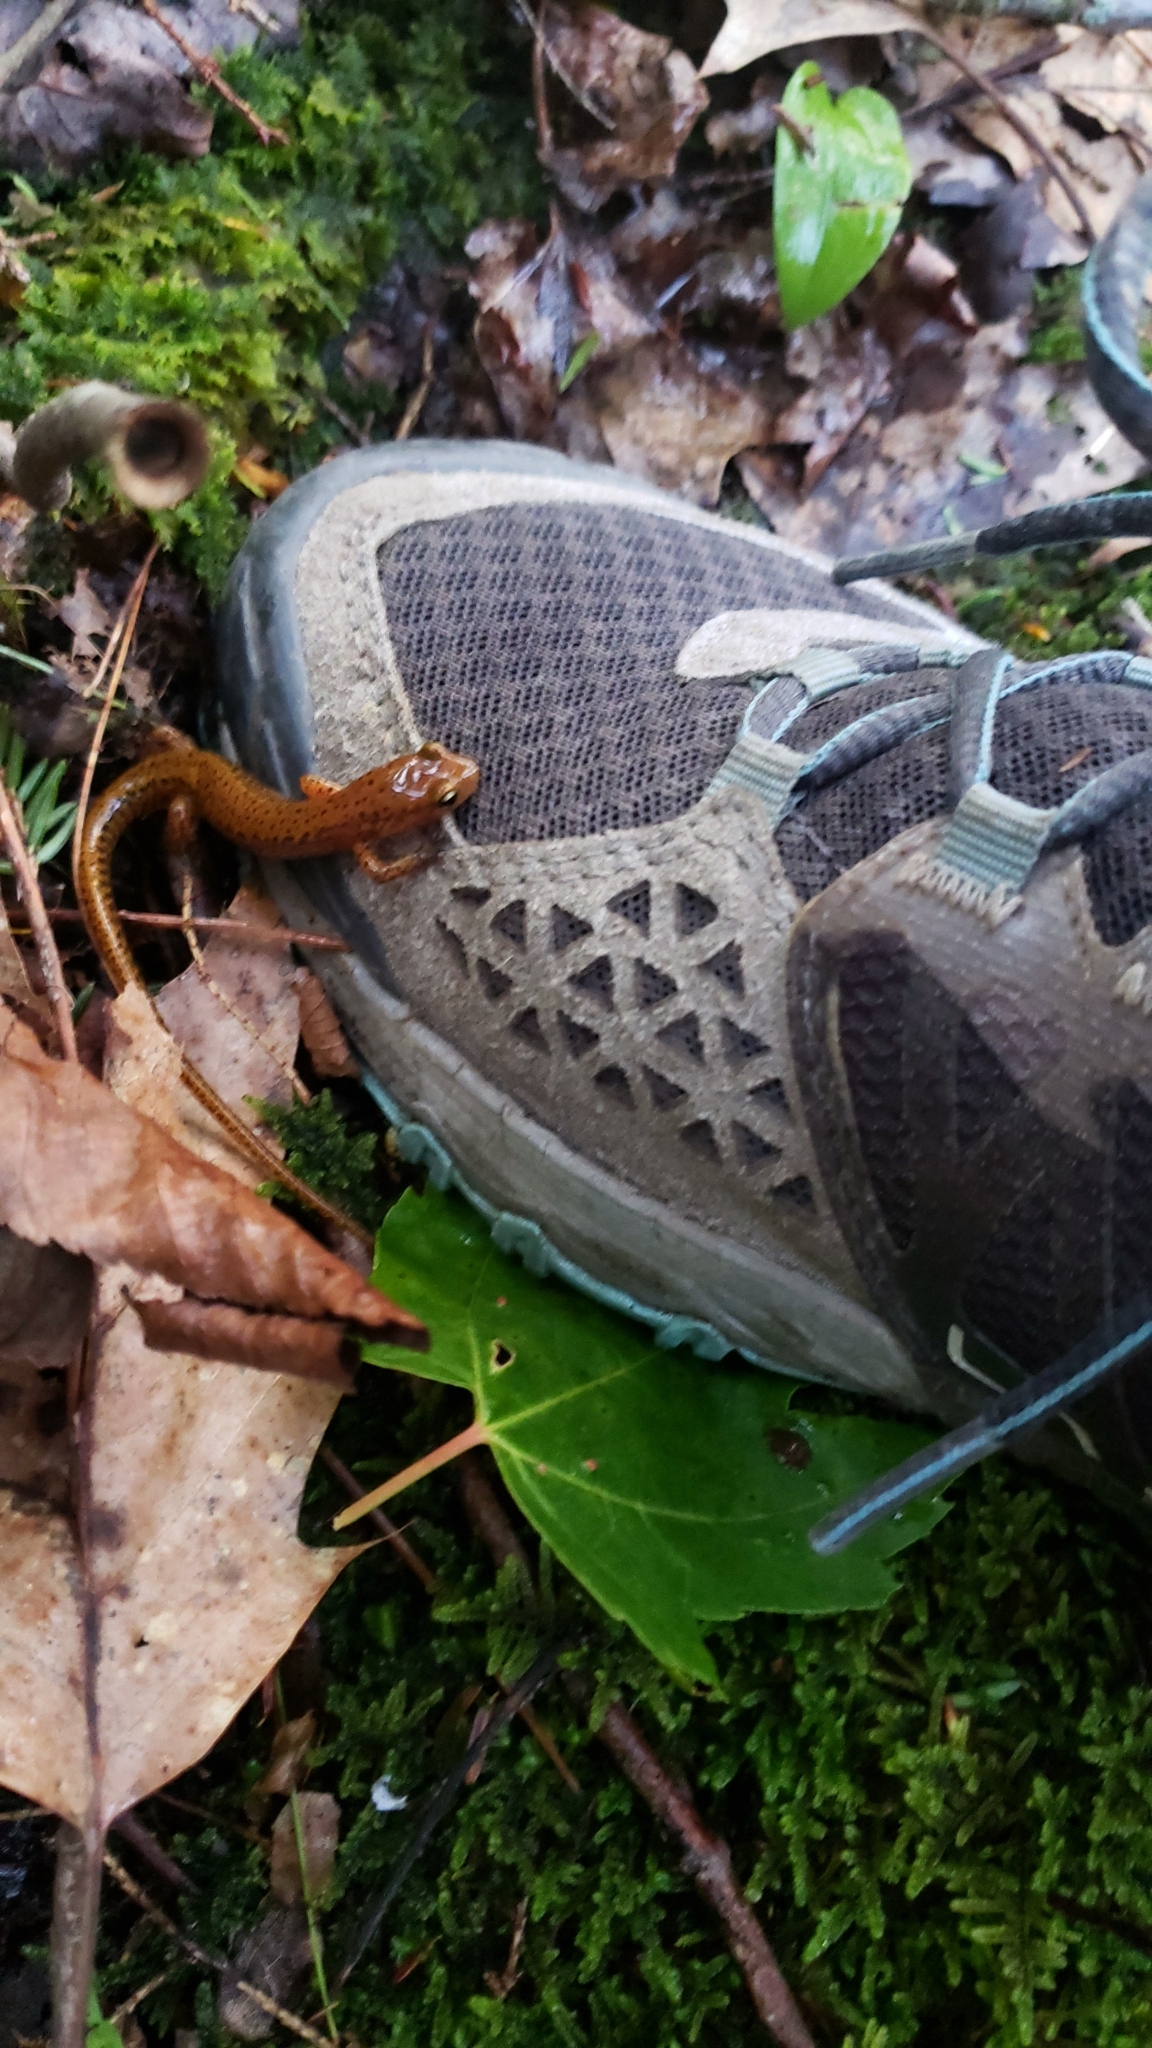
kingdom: Animalia
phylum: Chordata
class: Amphibia
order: Caudata
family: Plethodontidae
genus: Eurycea
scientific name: Eurycea longicauda
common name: Long-tailed salamander
